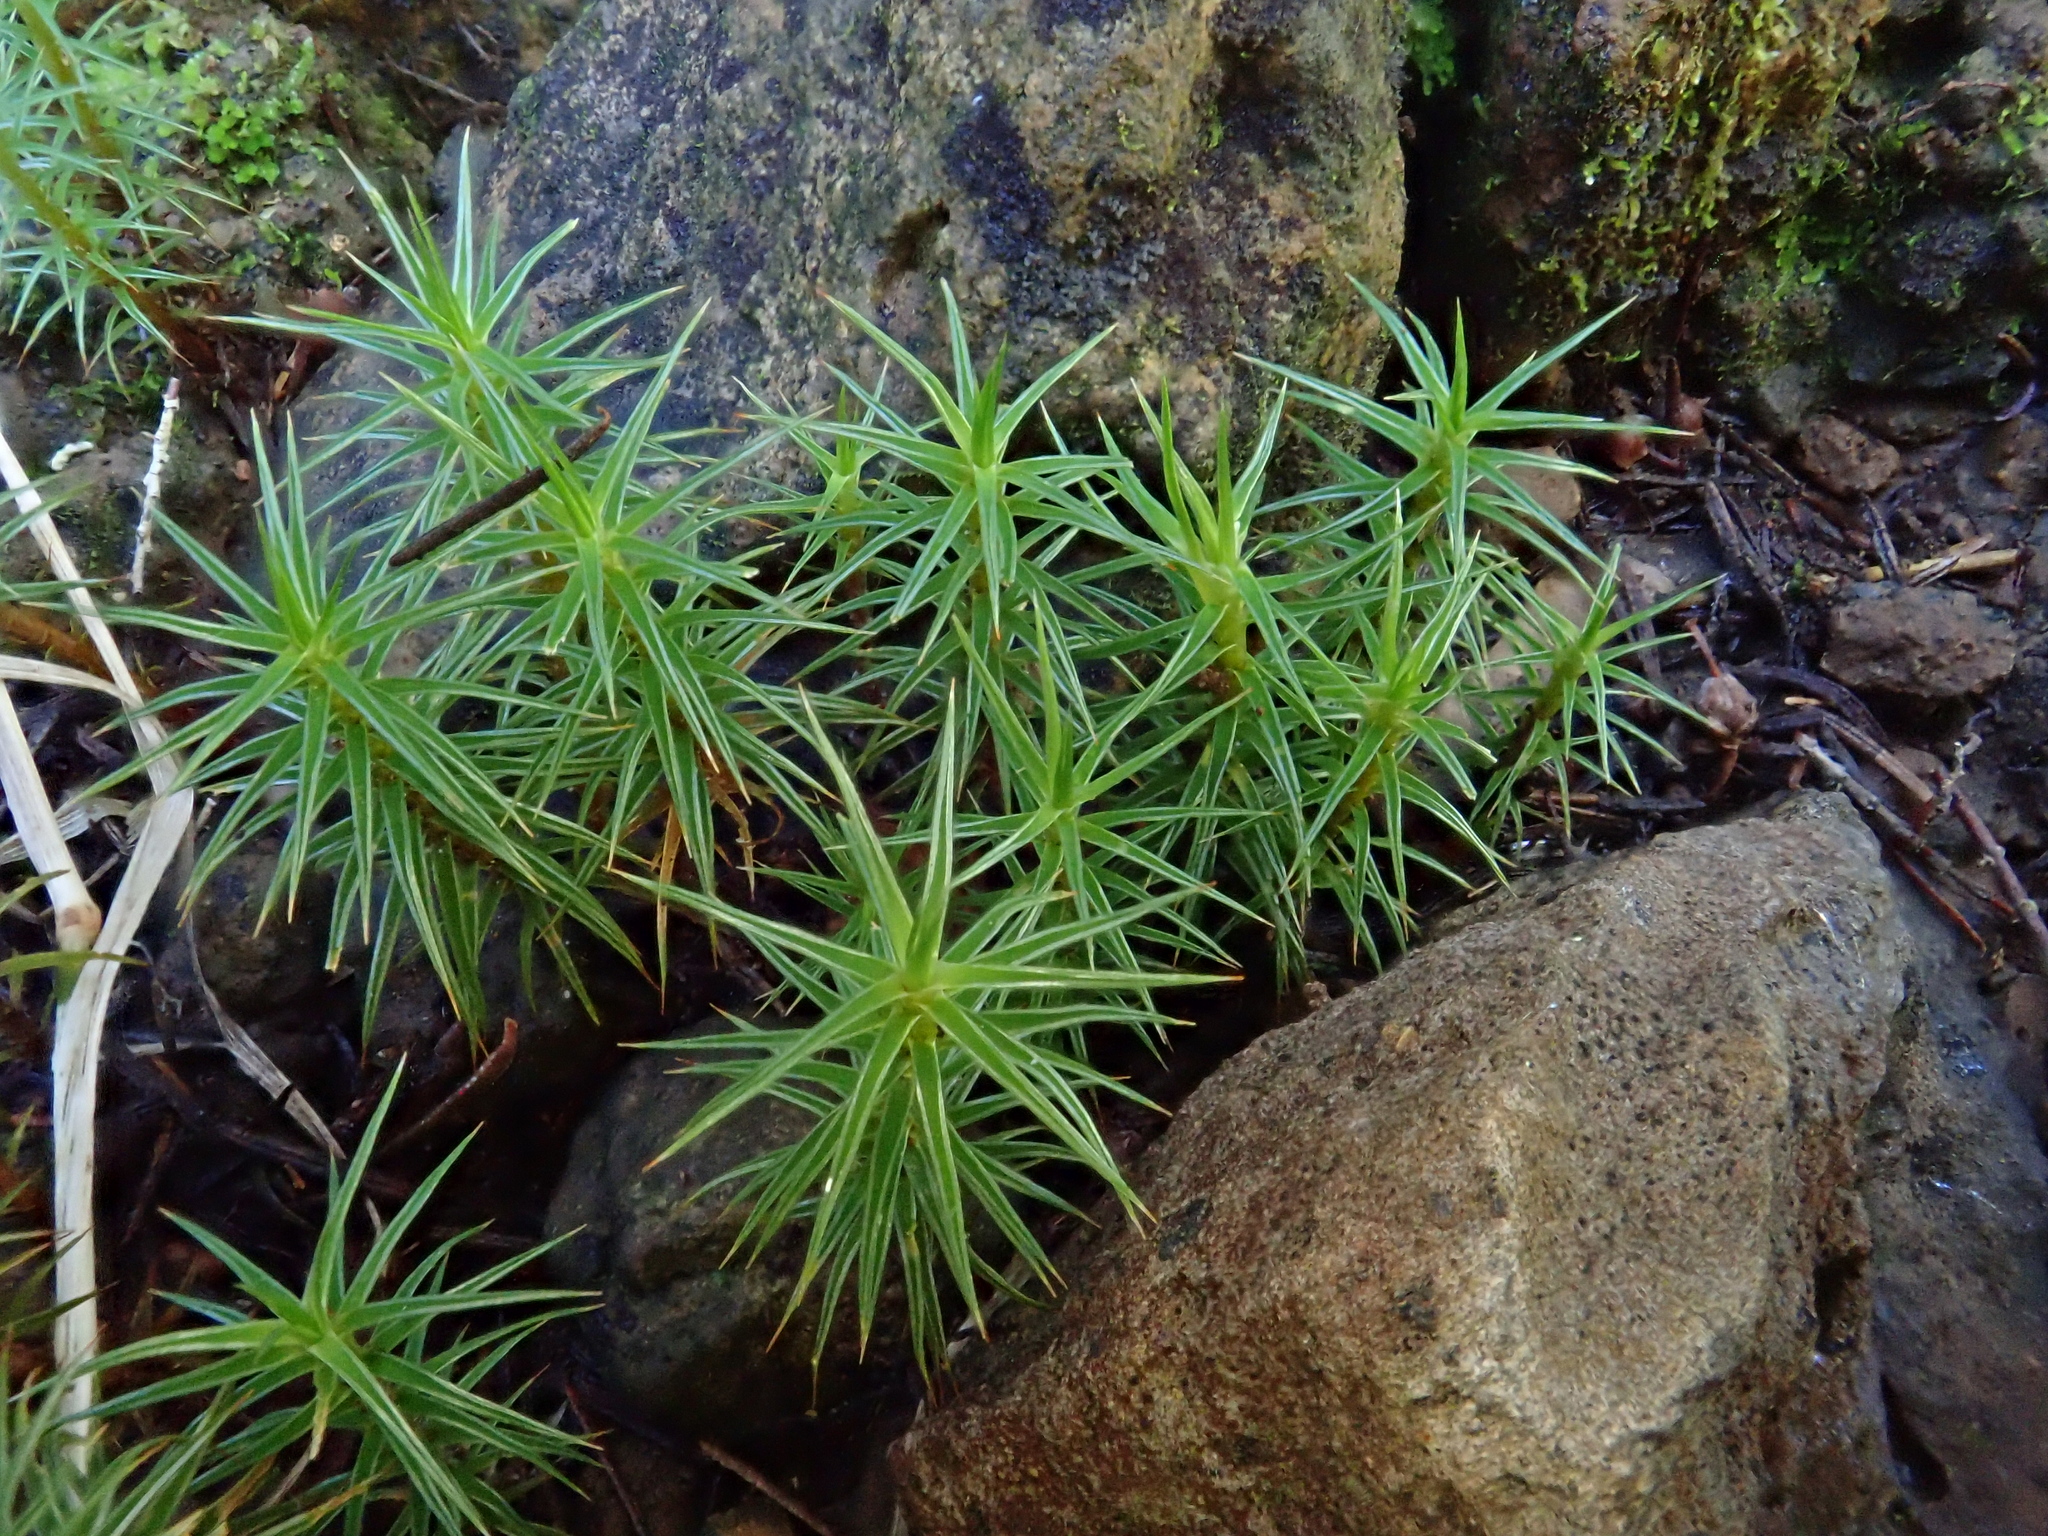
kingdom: Plantae
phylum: Bryophyta
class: Polytrichopsida
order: Polytrichales
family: Polytrichaceae
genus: Polytrichum
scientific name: Polytrichum juniperinum
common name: Juniper haircap moss
